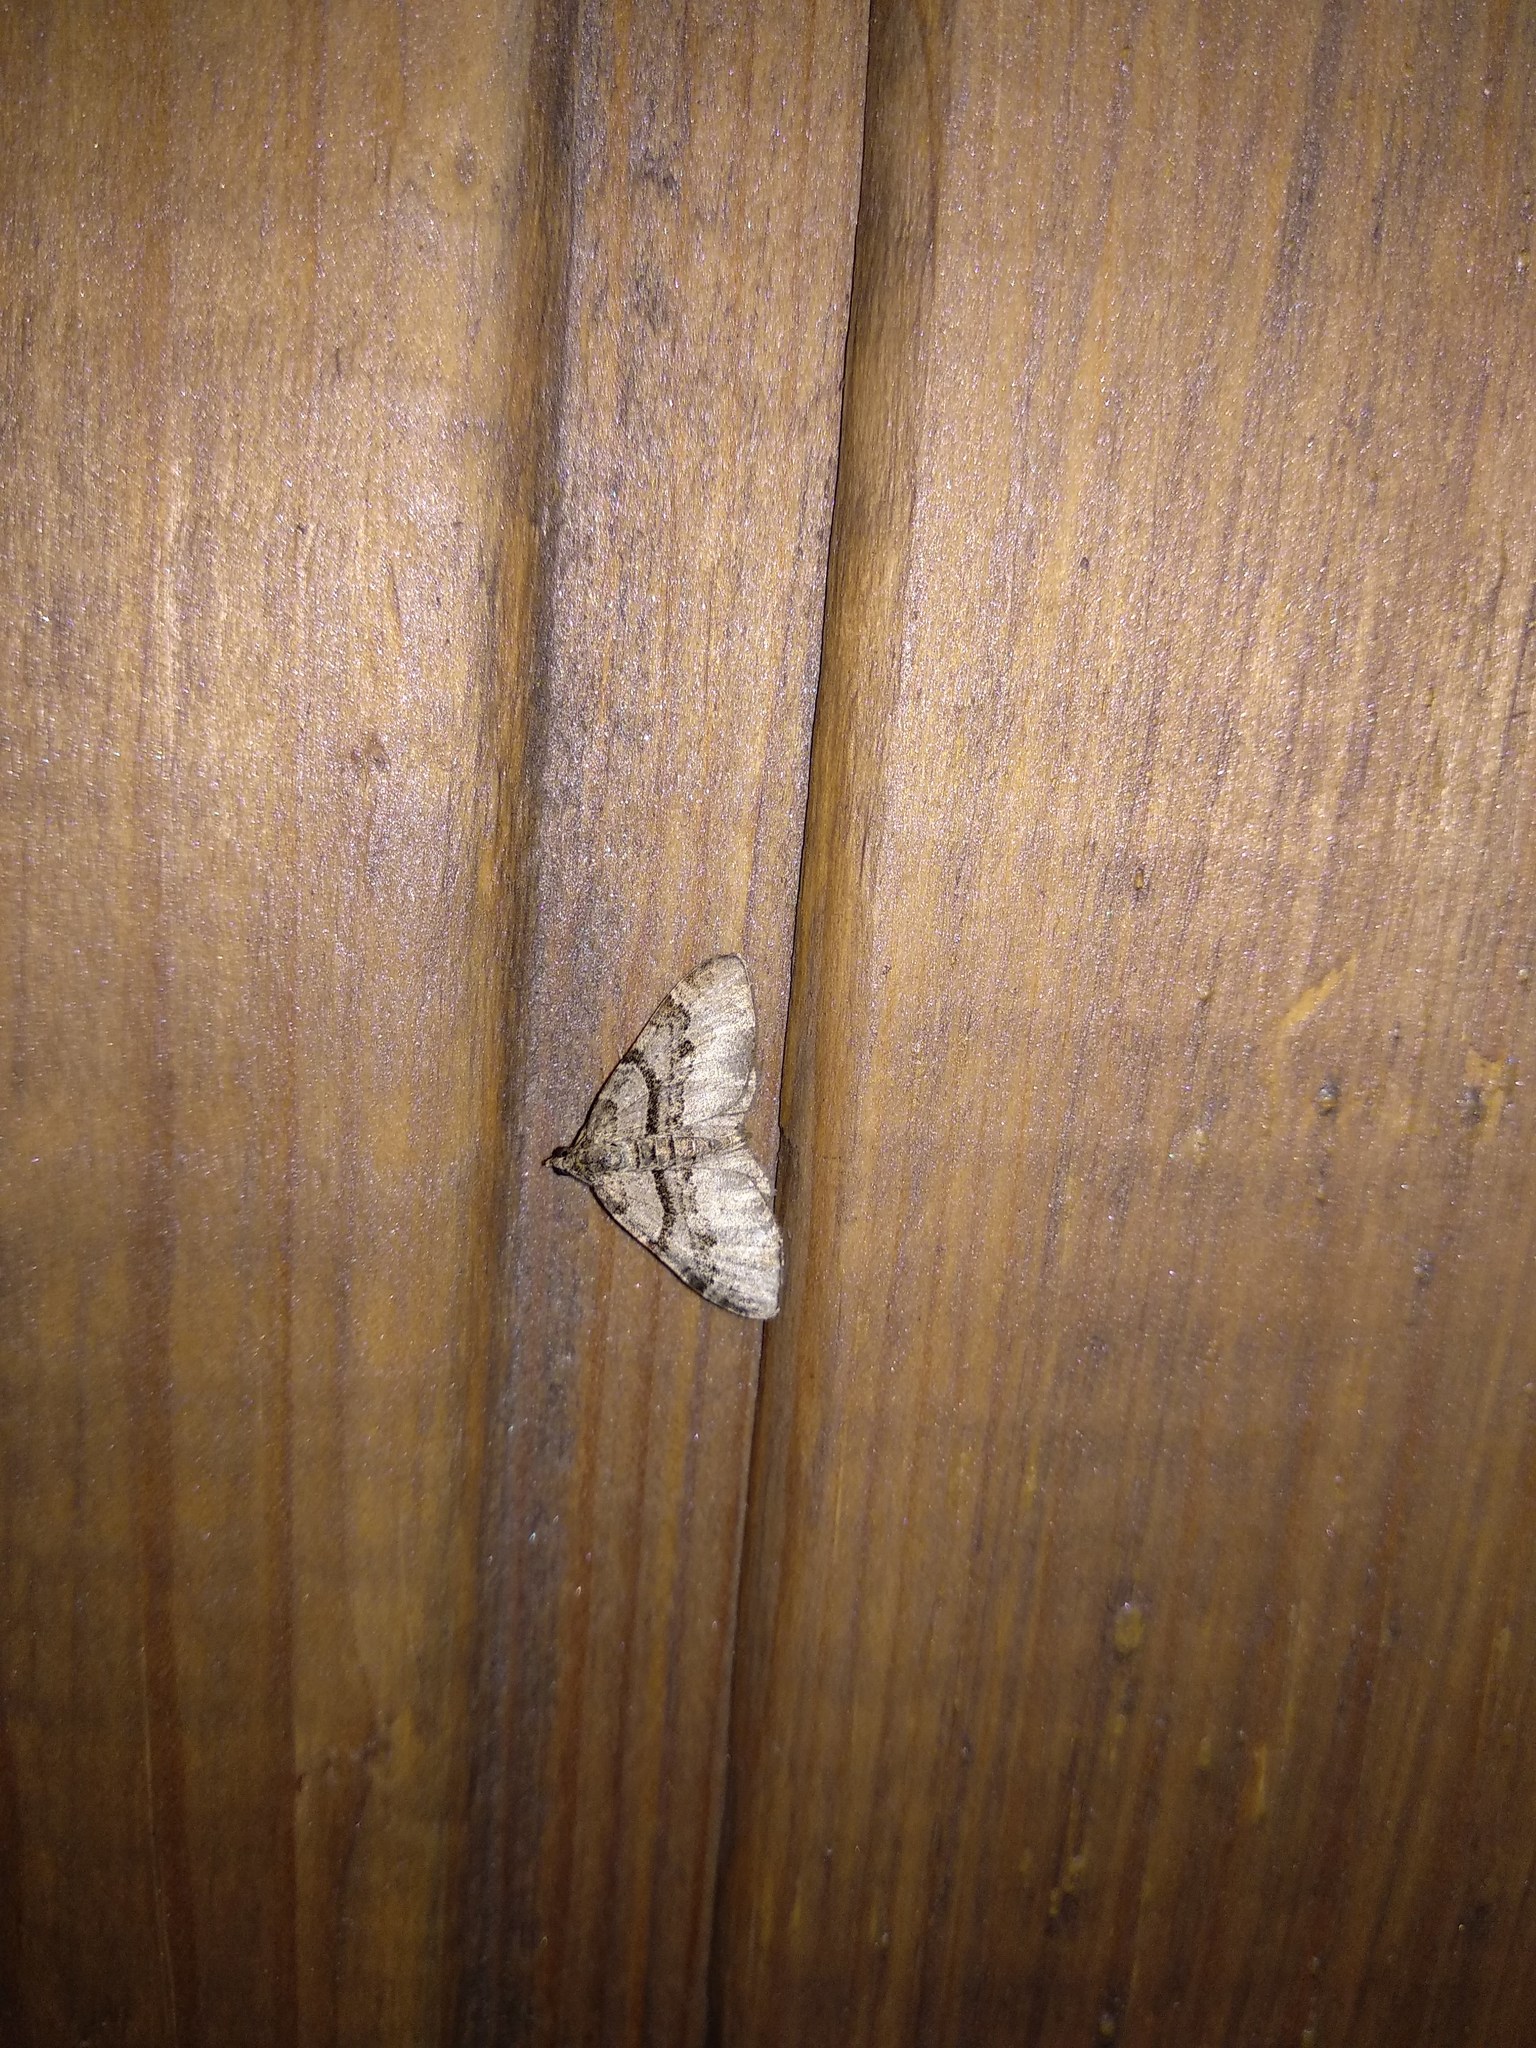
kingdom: Animalia
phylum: Arthropoda
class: Insecta
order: Lepidoptera
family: Geometridae
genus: Xanthorhoe
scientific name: Xanthorhoe designata
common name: Flame carpet
